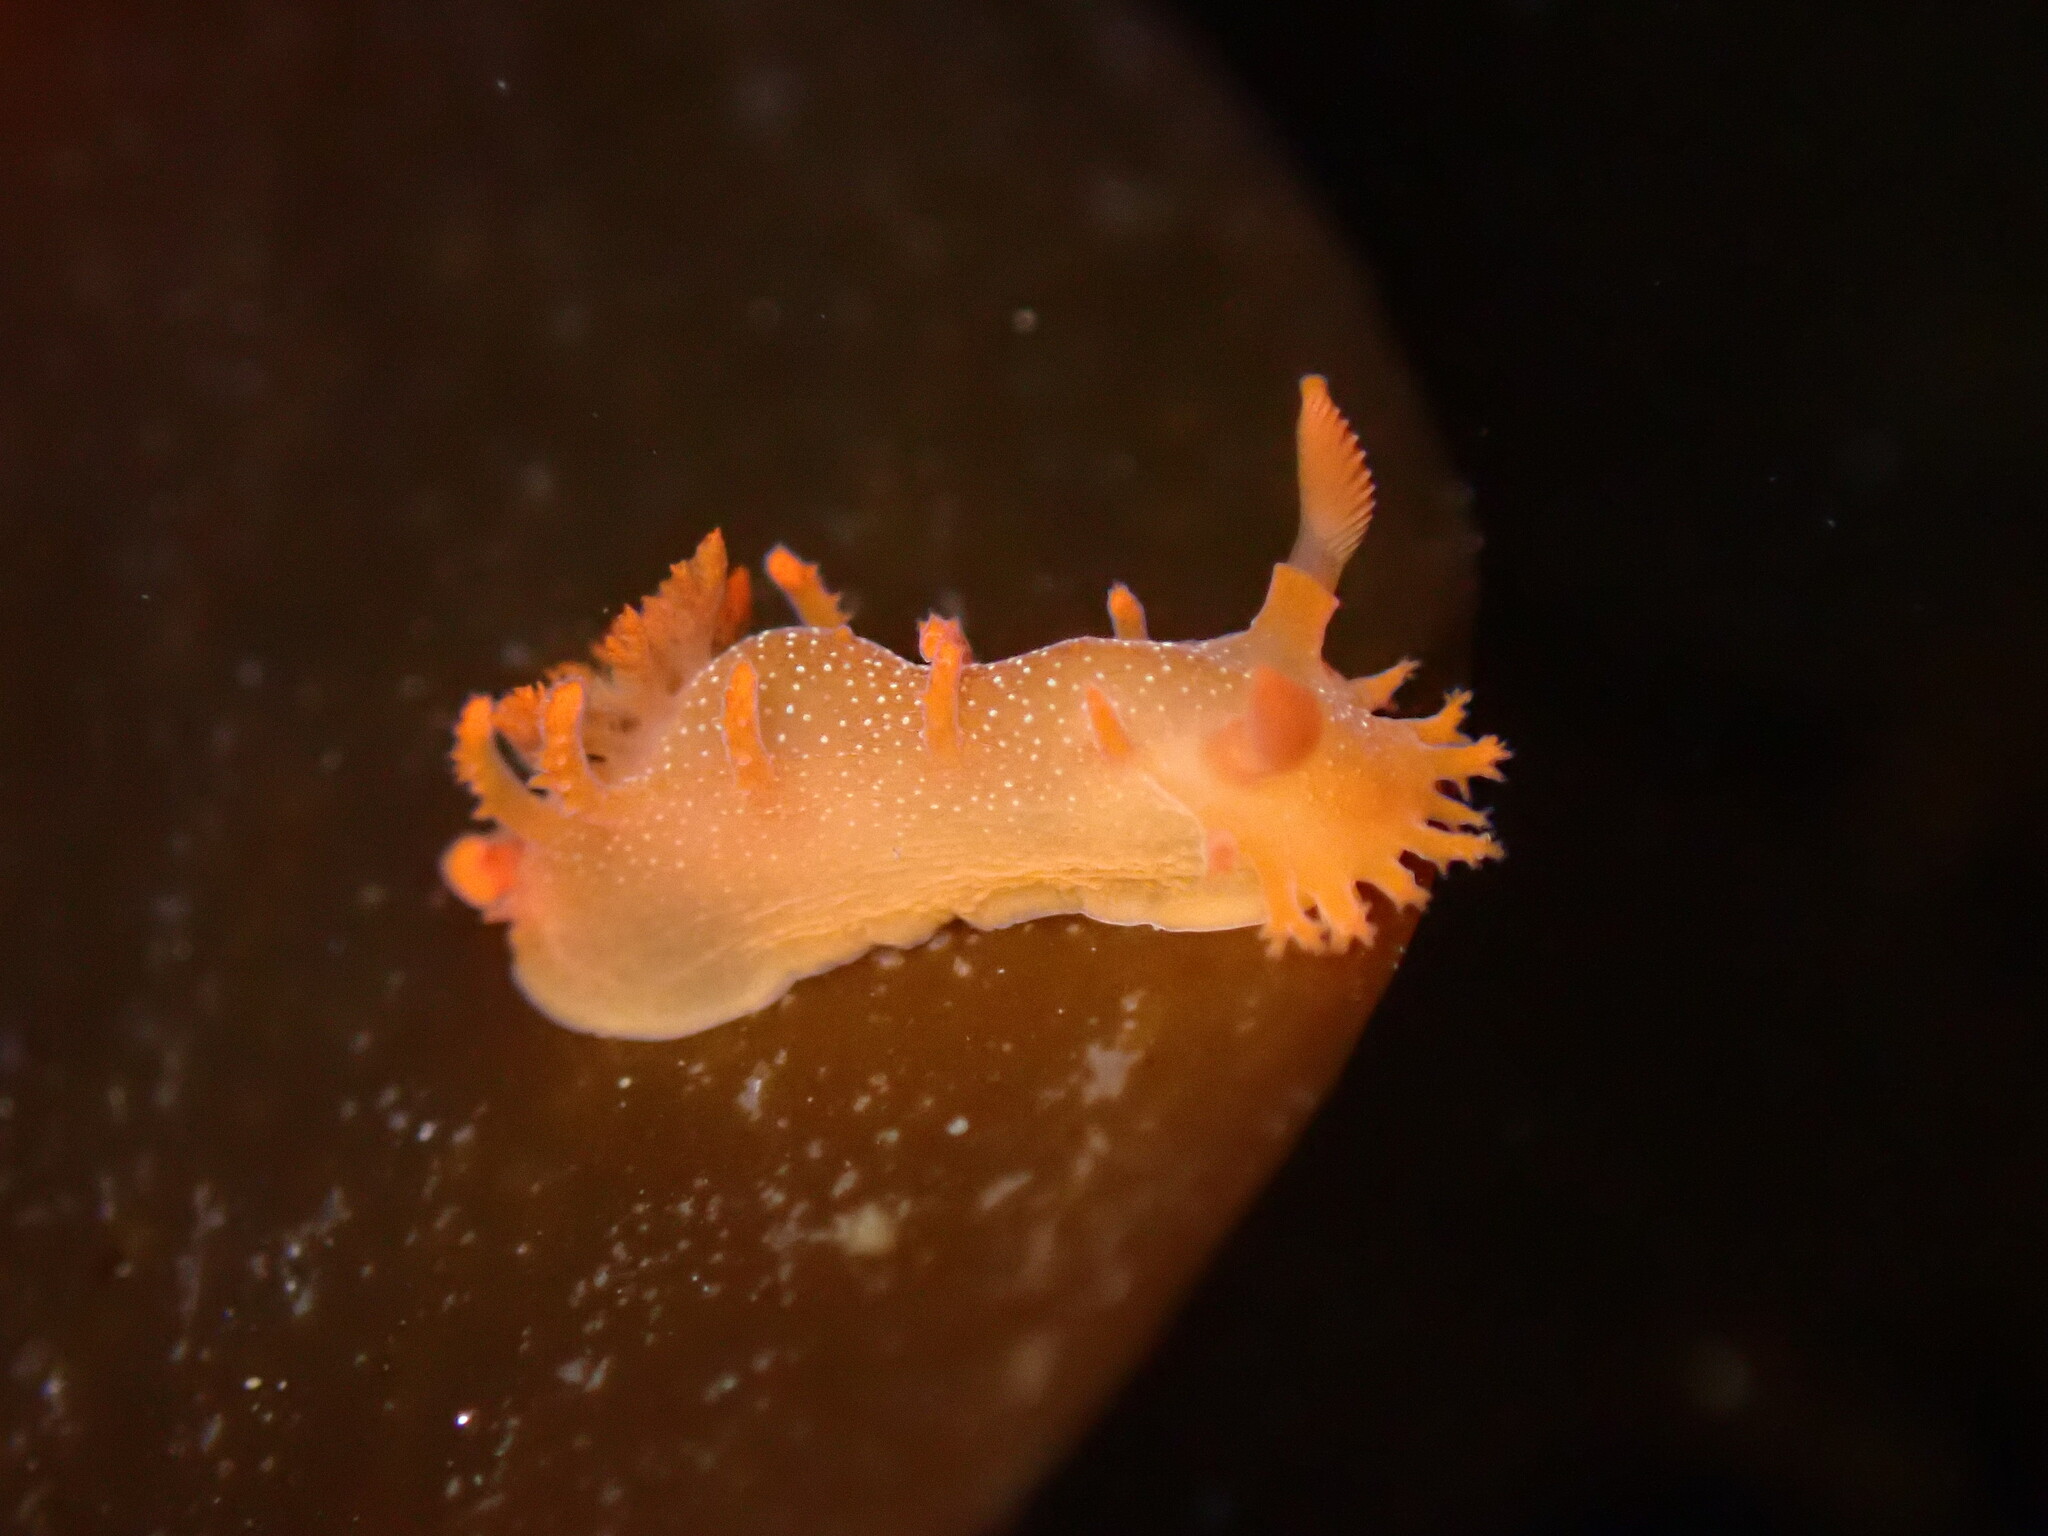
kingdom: Animalia
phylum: Mollusca
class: Gastropoda
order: Nudibranchia
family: Polyceridae
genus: Triopha
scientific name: Triopha maculata
